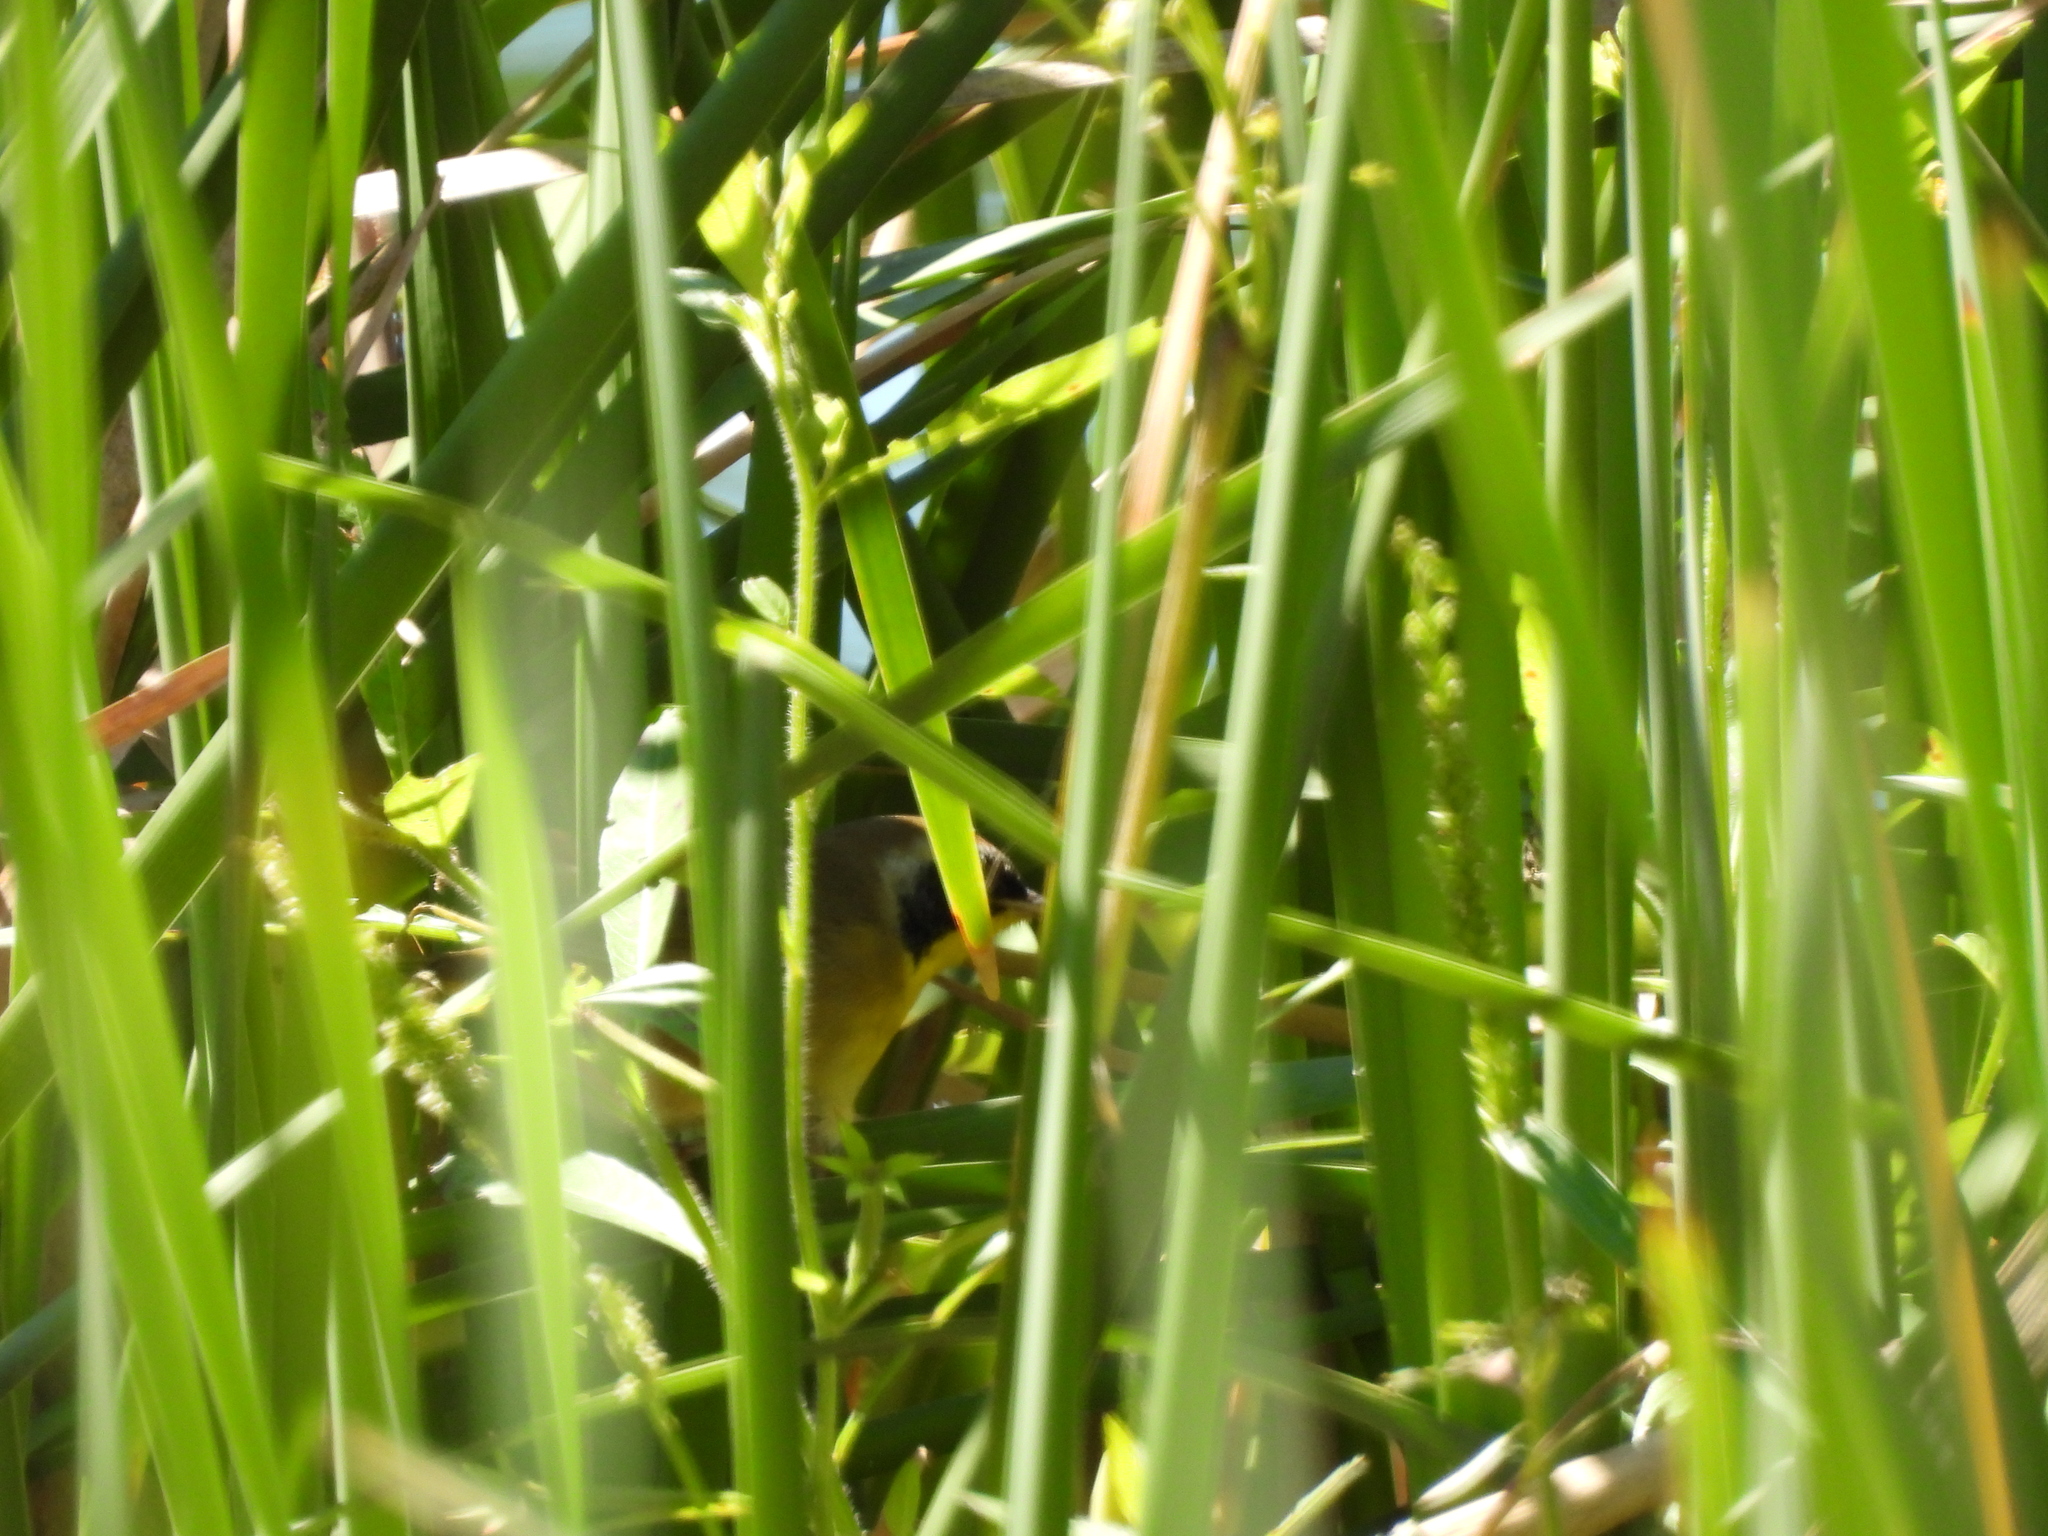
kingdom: Animalia
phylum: Chordata
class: Aves
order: Passeriformes
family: Parulidae
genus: Geothlypis
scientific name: Geothlypis trichas
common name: Common yellowthroat
